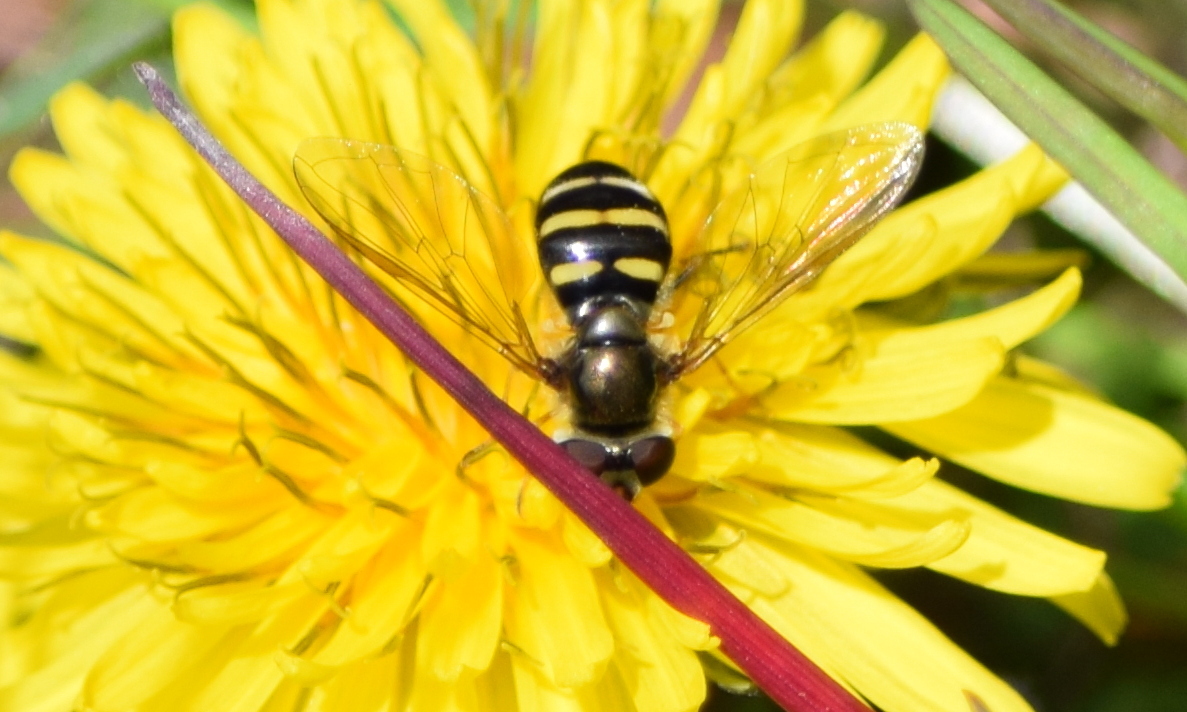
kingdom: Animalia
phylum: Arthropoda
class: Insecta
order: Diptera
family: Syrphidae
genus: Eupeodes
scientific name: Eupeodes
